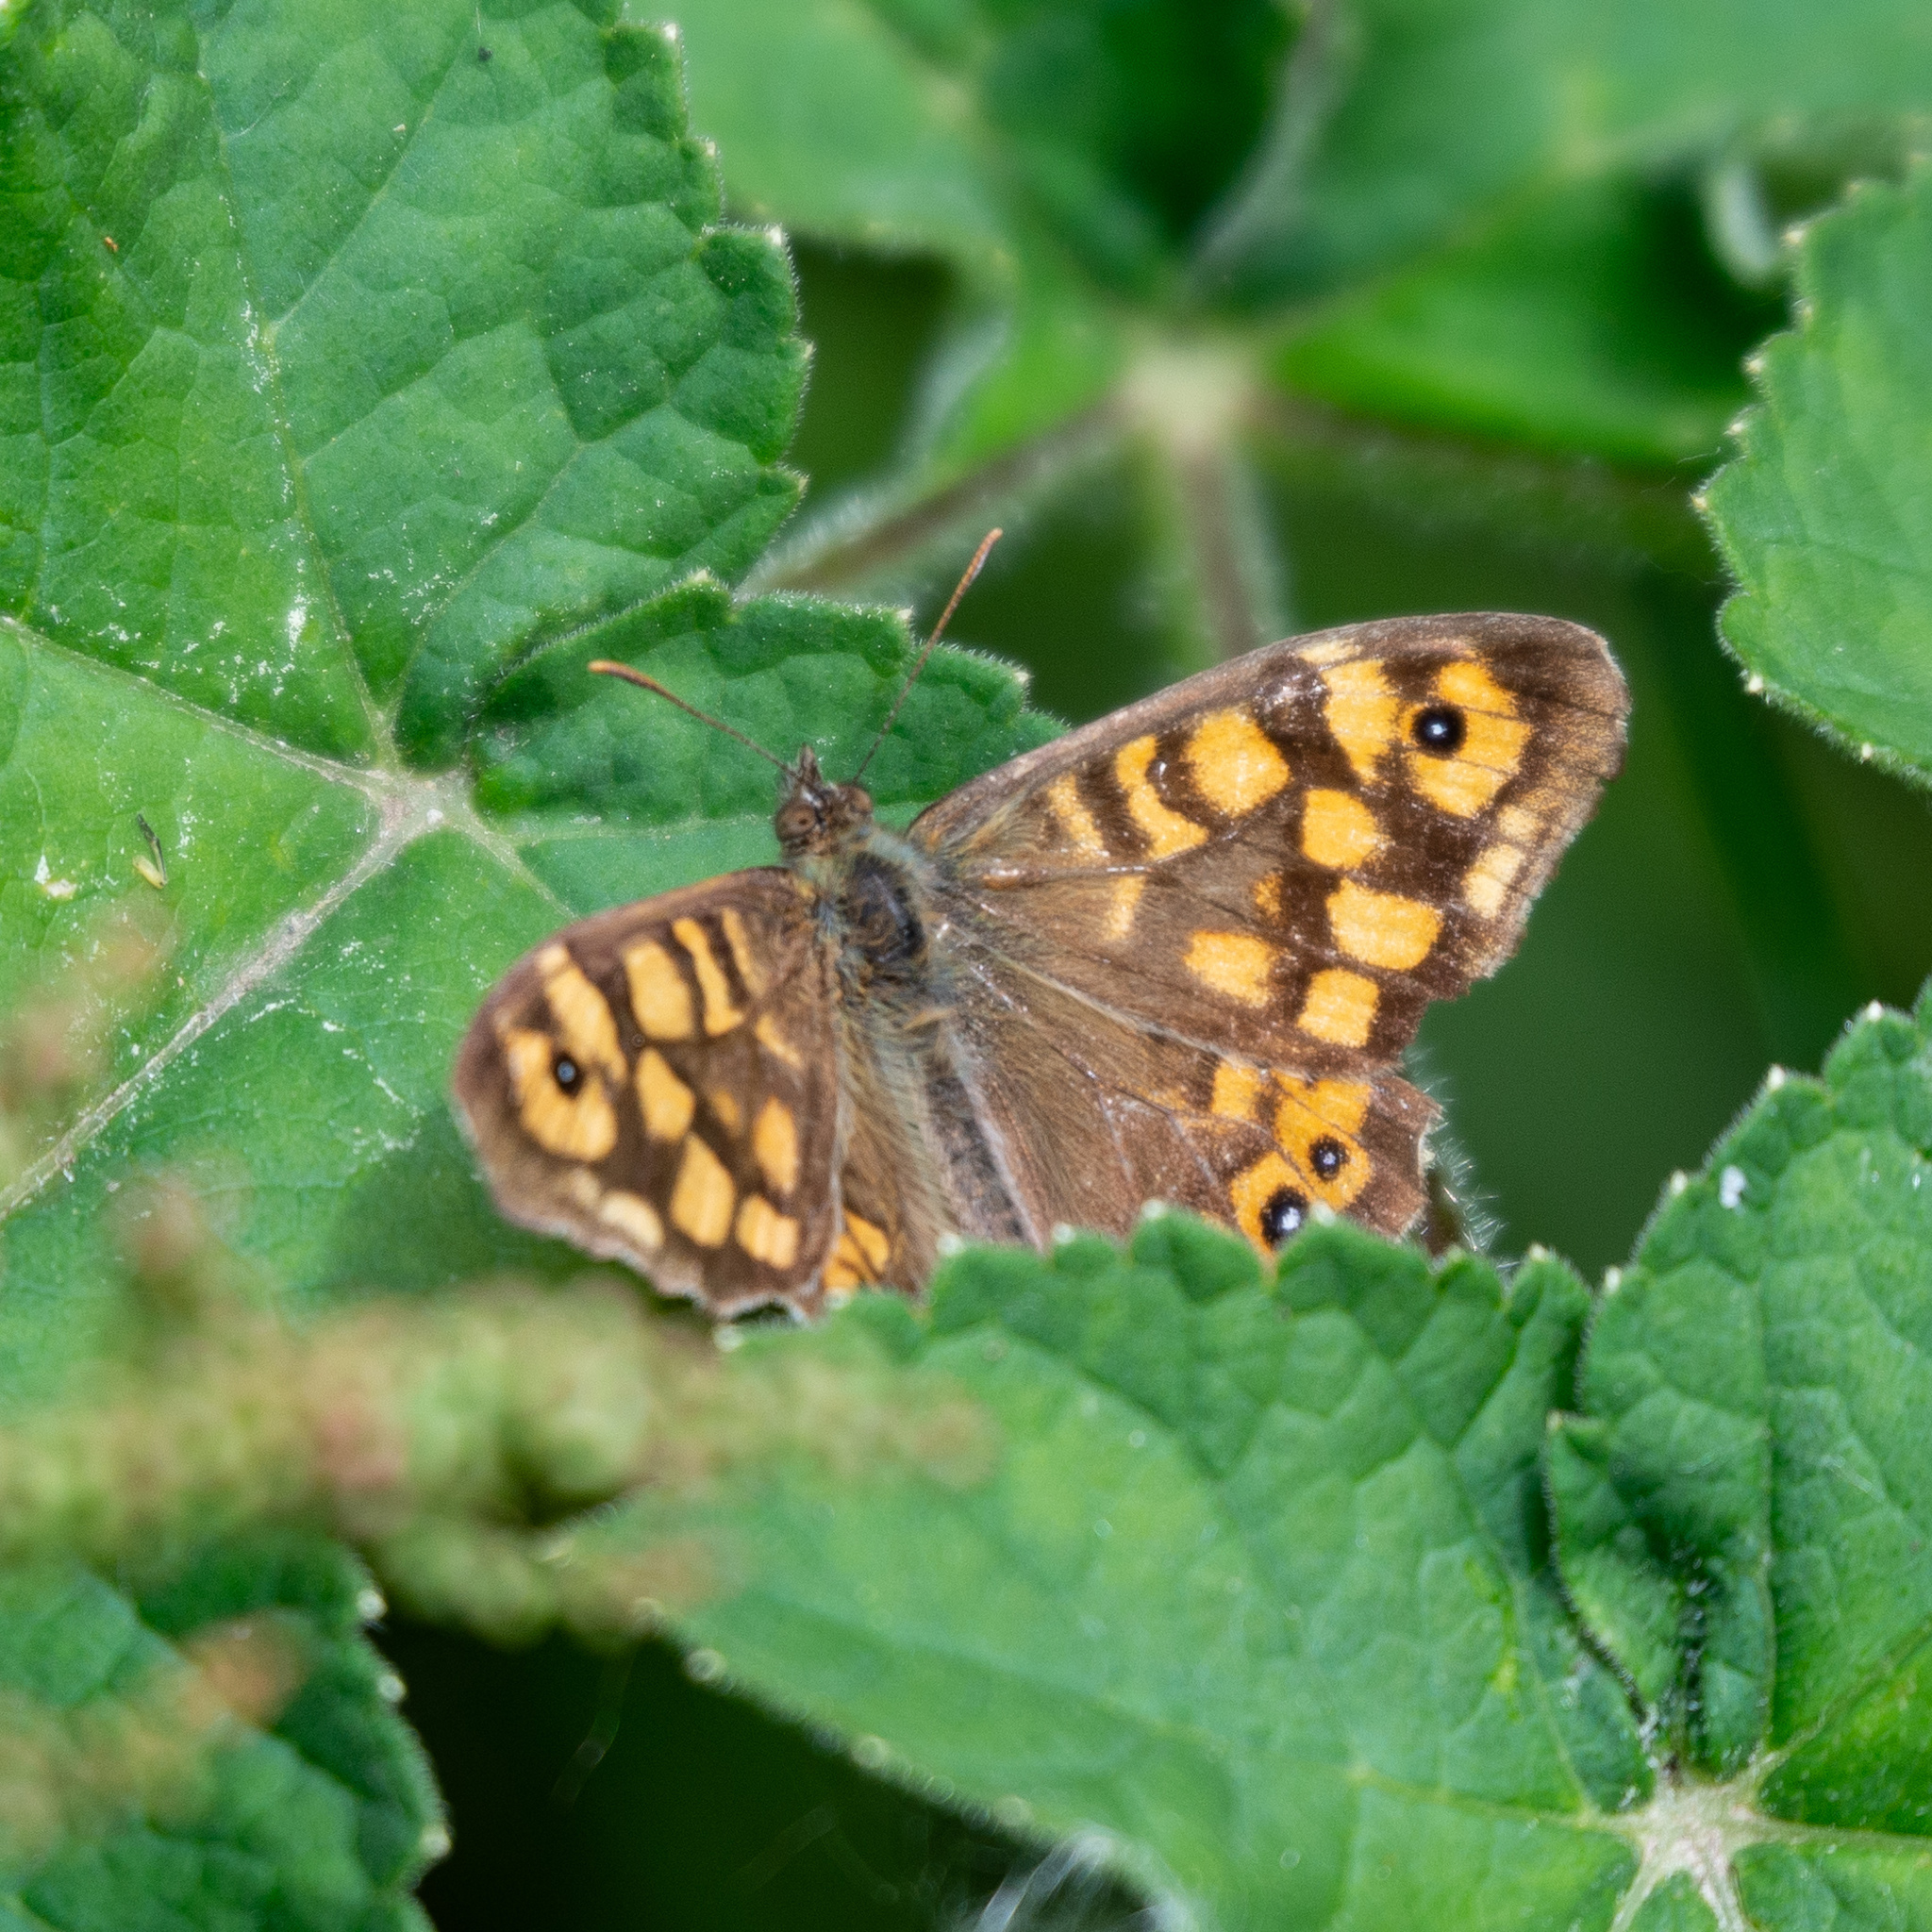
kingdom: Animalia
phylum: Arthropoda
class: Insecta
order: Lepidoptera
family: Nymphalidae
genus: Pararge
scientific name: Pararge aegeria
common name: Speckled wood
